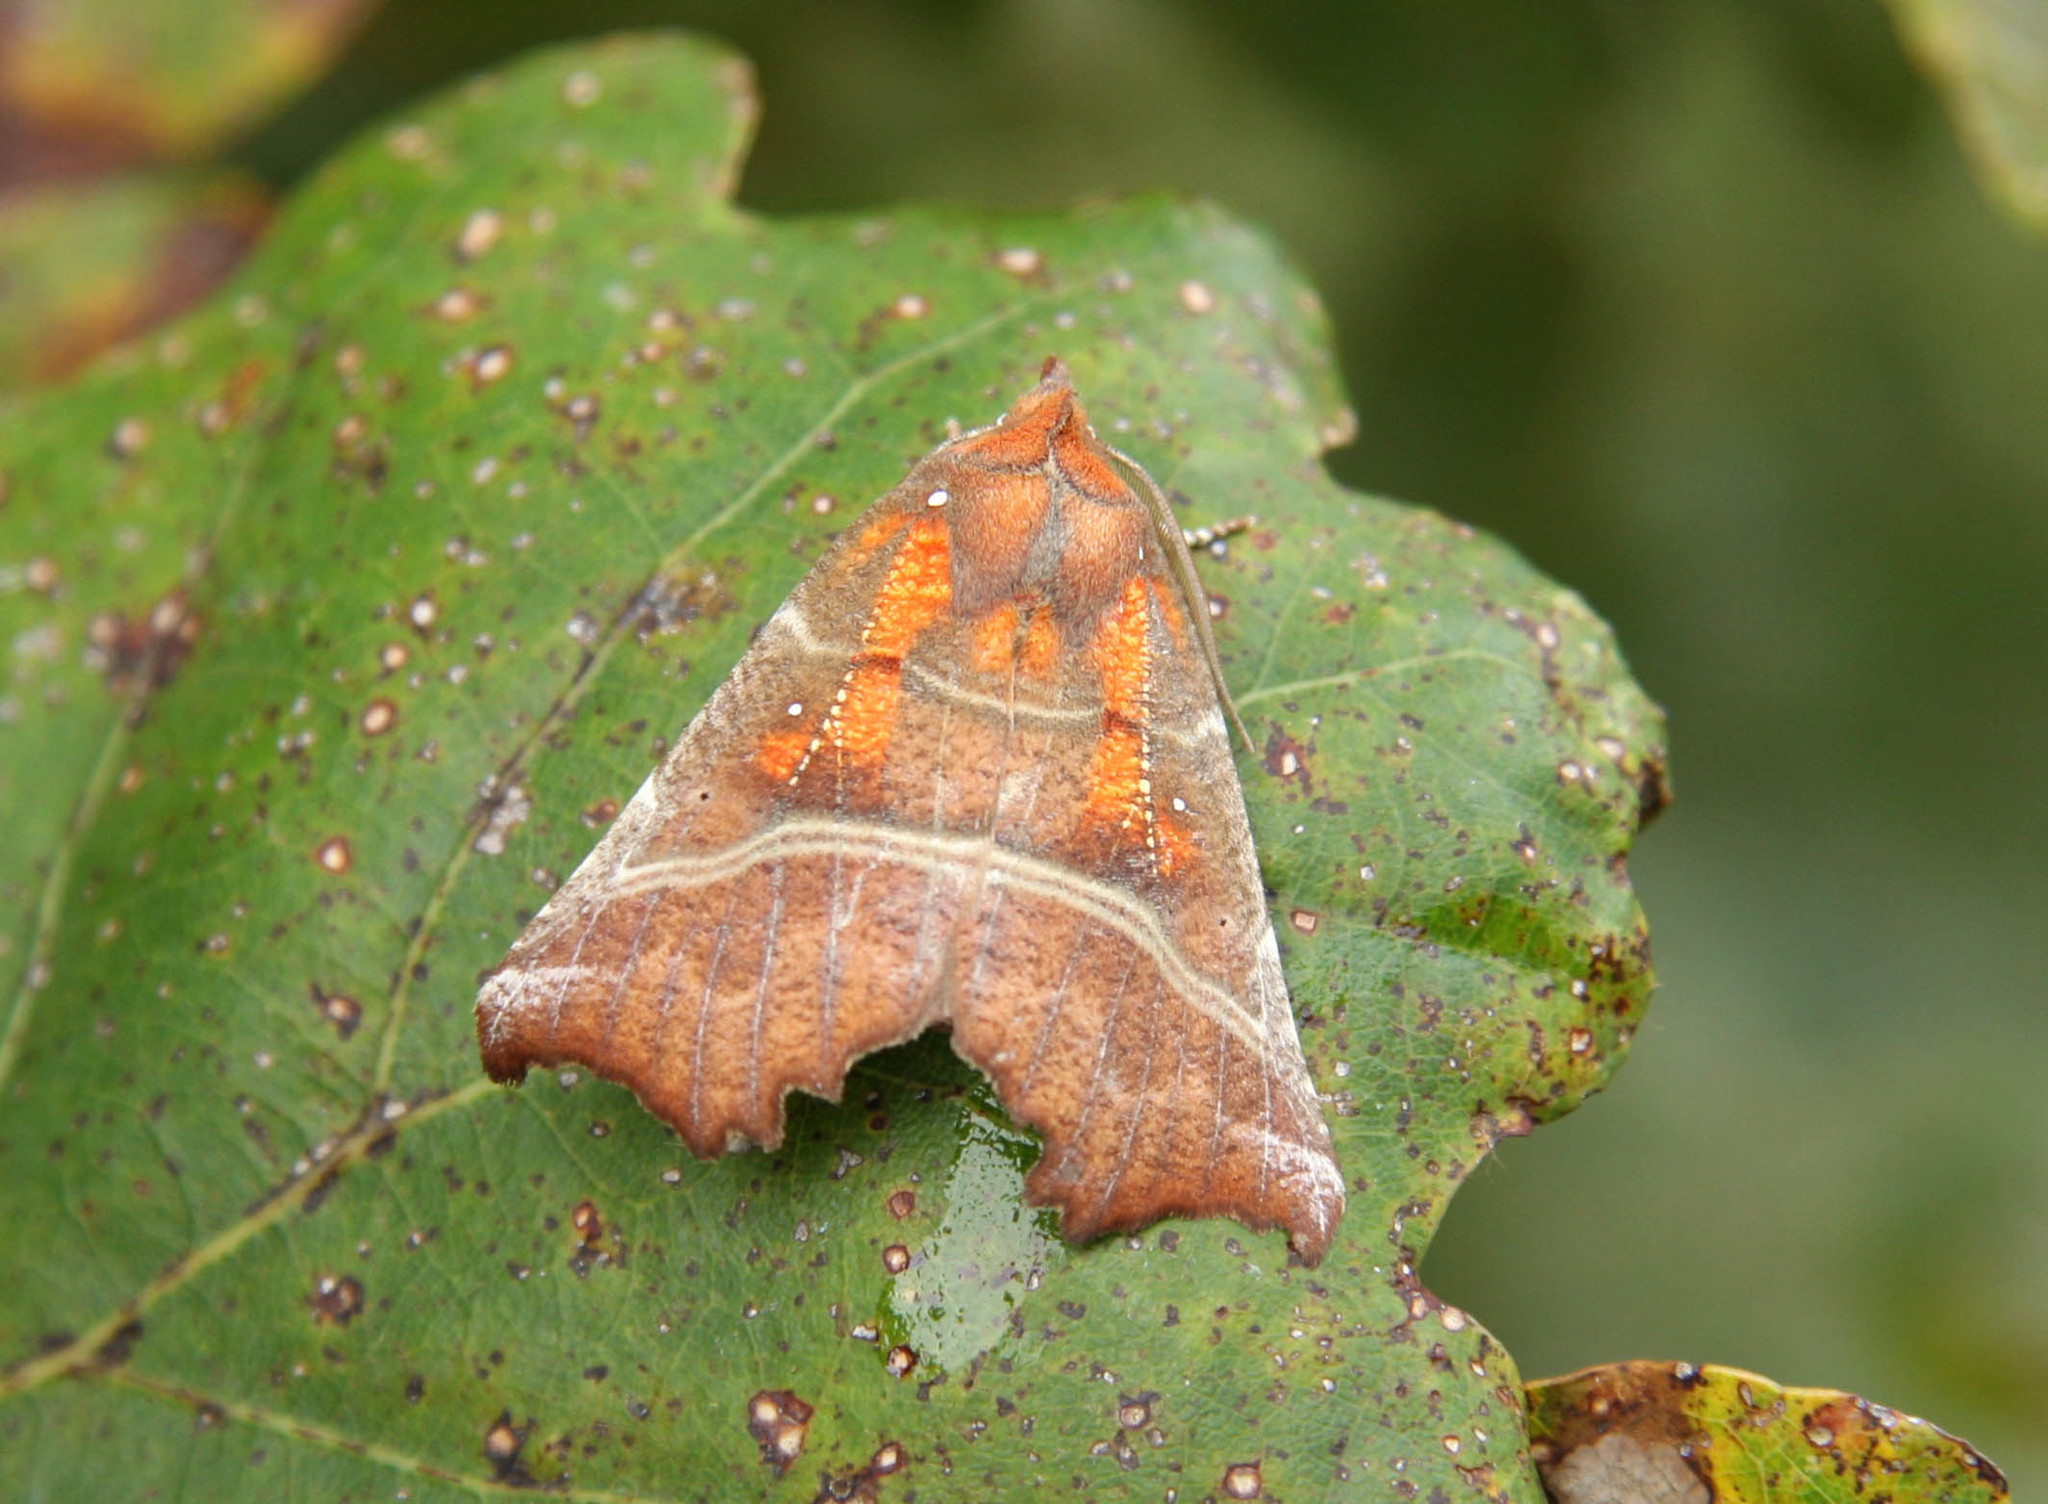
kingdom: Animalia
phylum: Arthropoda
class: Insecta
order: Lepidoptera
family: Erebidae
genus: Scoliopteryx
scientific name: Scoliopteryx libatrix
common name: Herald
